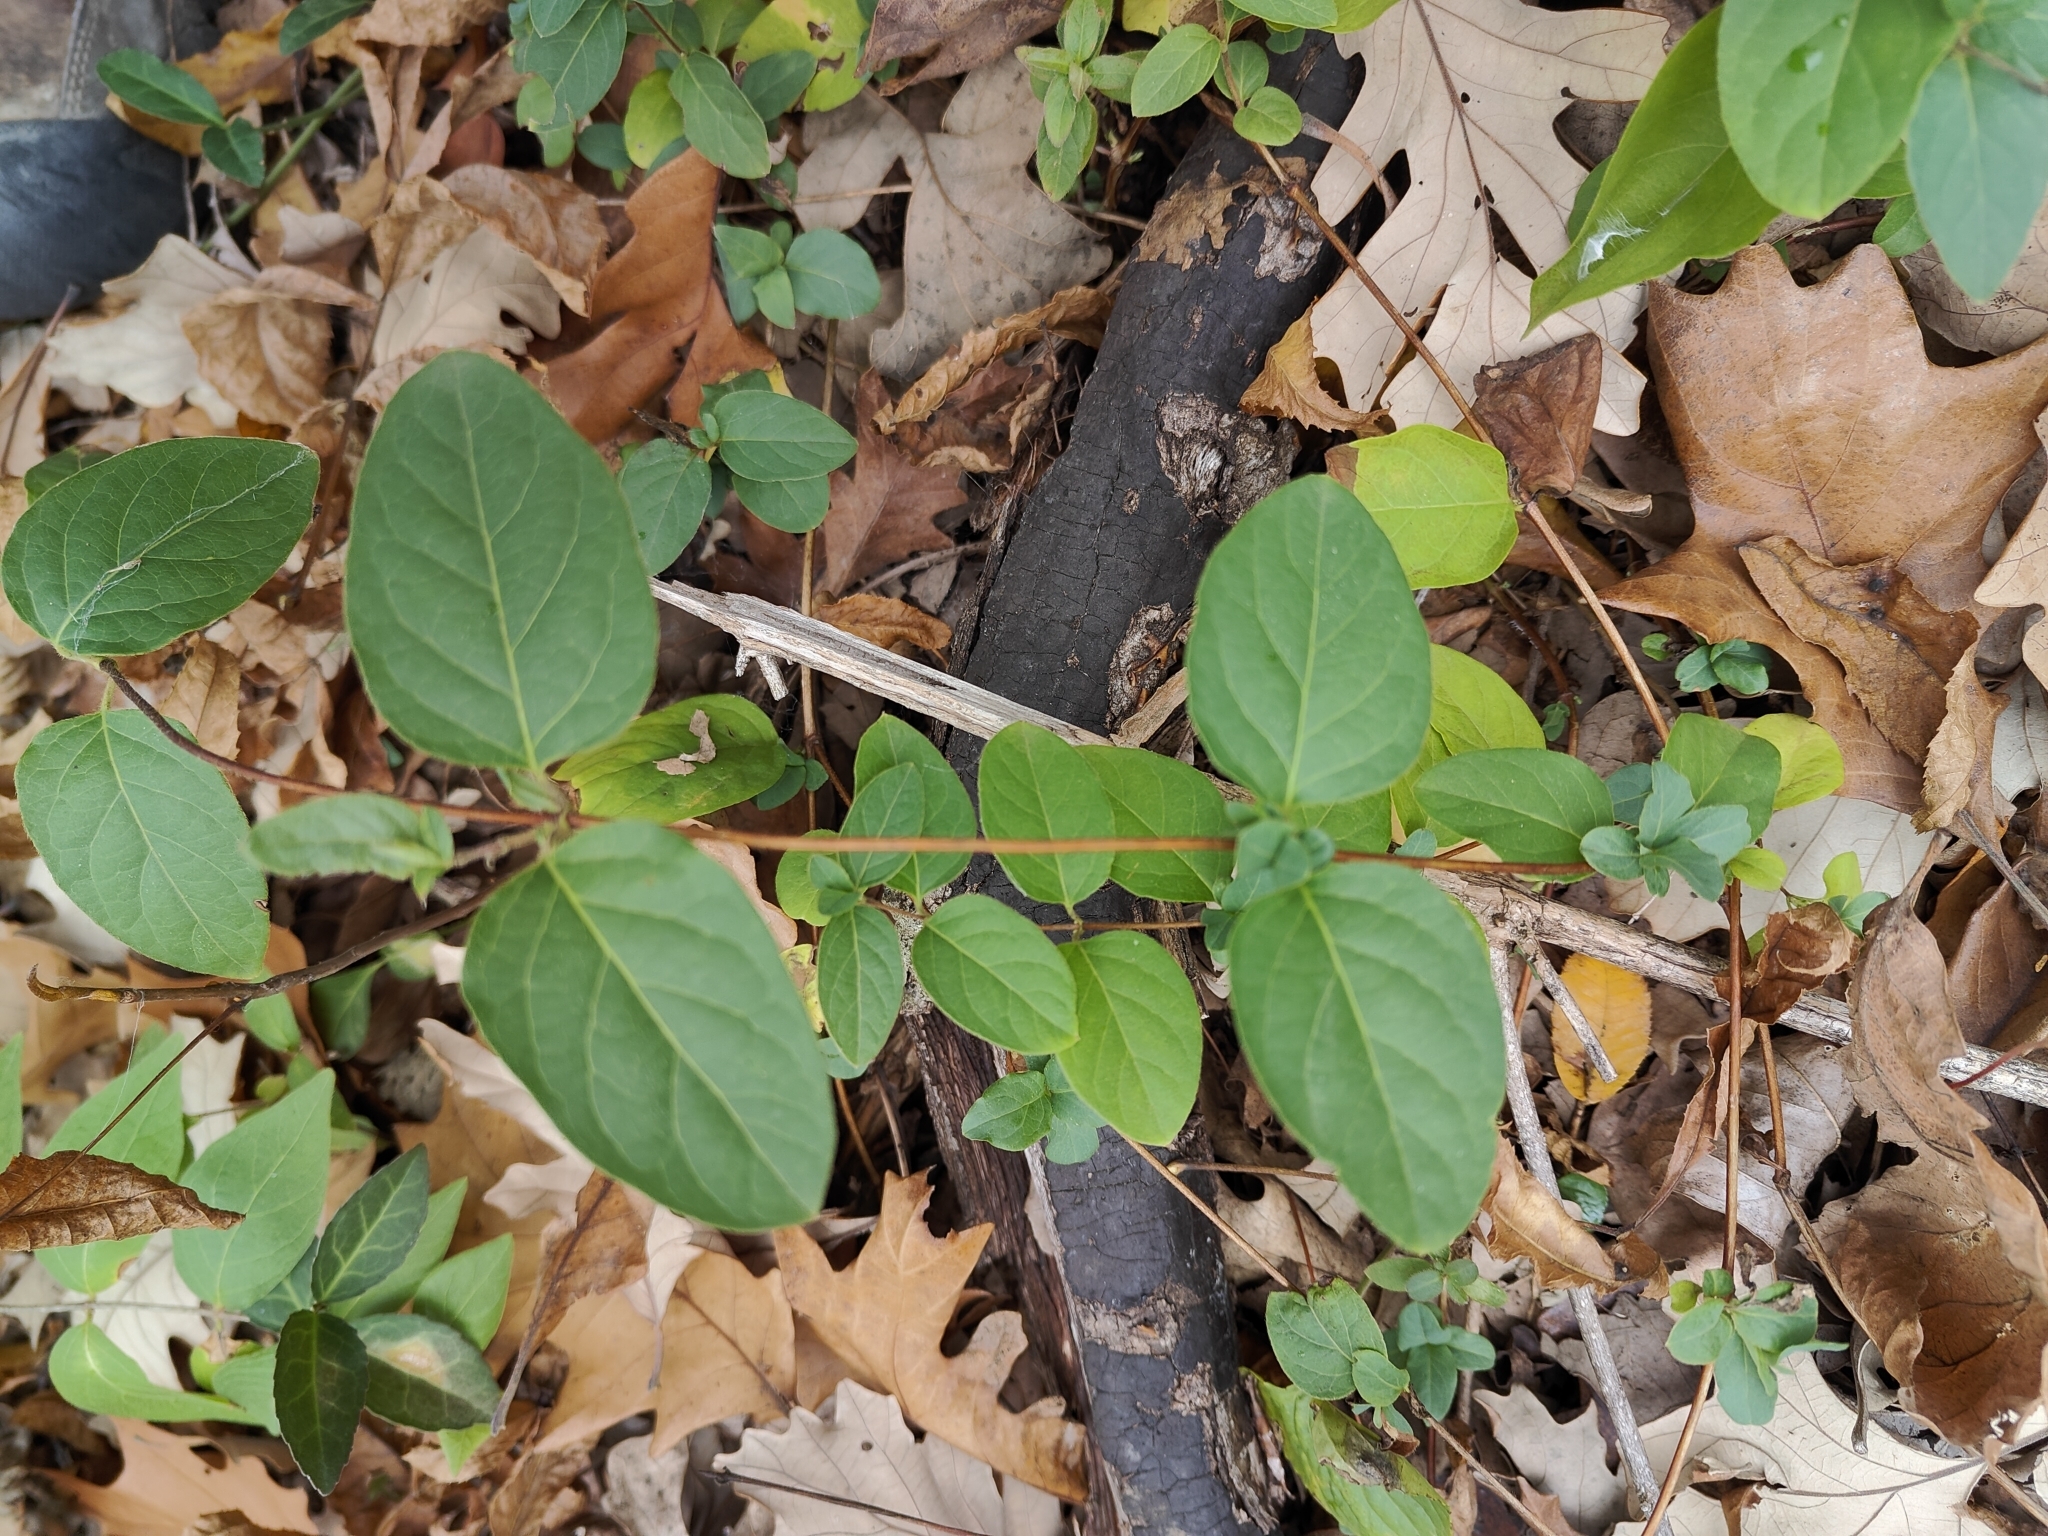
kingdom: Plantae
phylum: Tracheophyta
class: Magnoliopsida
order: Dipsacales
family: Caprifoliaceae
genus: Lonicera
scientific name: Lonicera japonica
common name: Japanese honeysuckle
